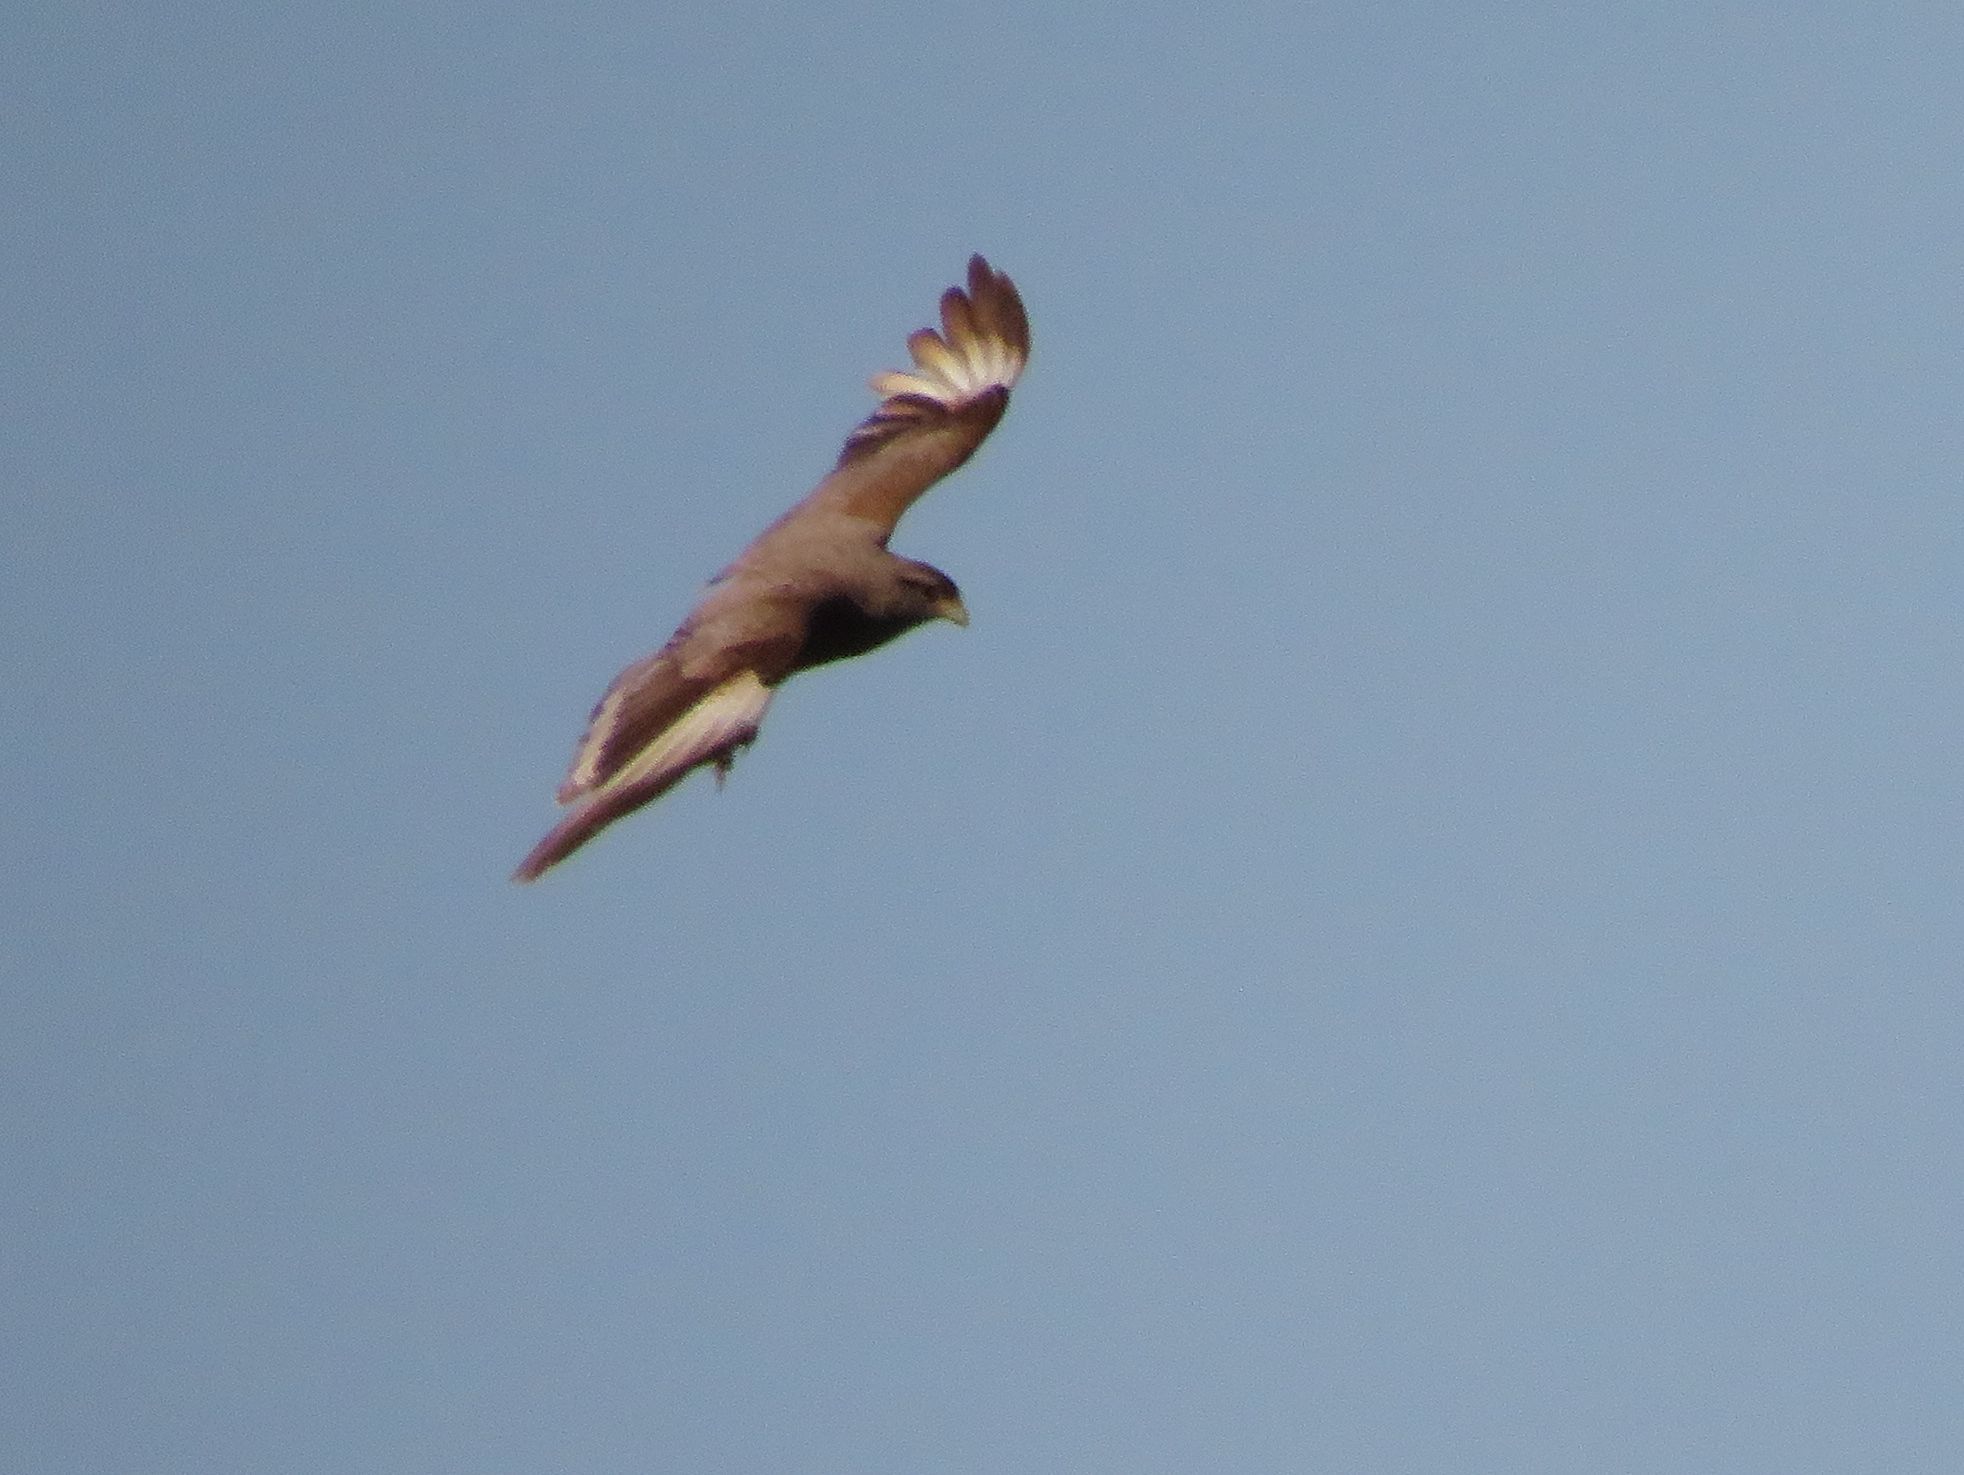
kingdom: Animalia
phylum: Chordata
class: Aves
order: Falconiformes
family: Falconidae
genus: Daptrius
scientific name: Daptrius
